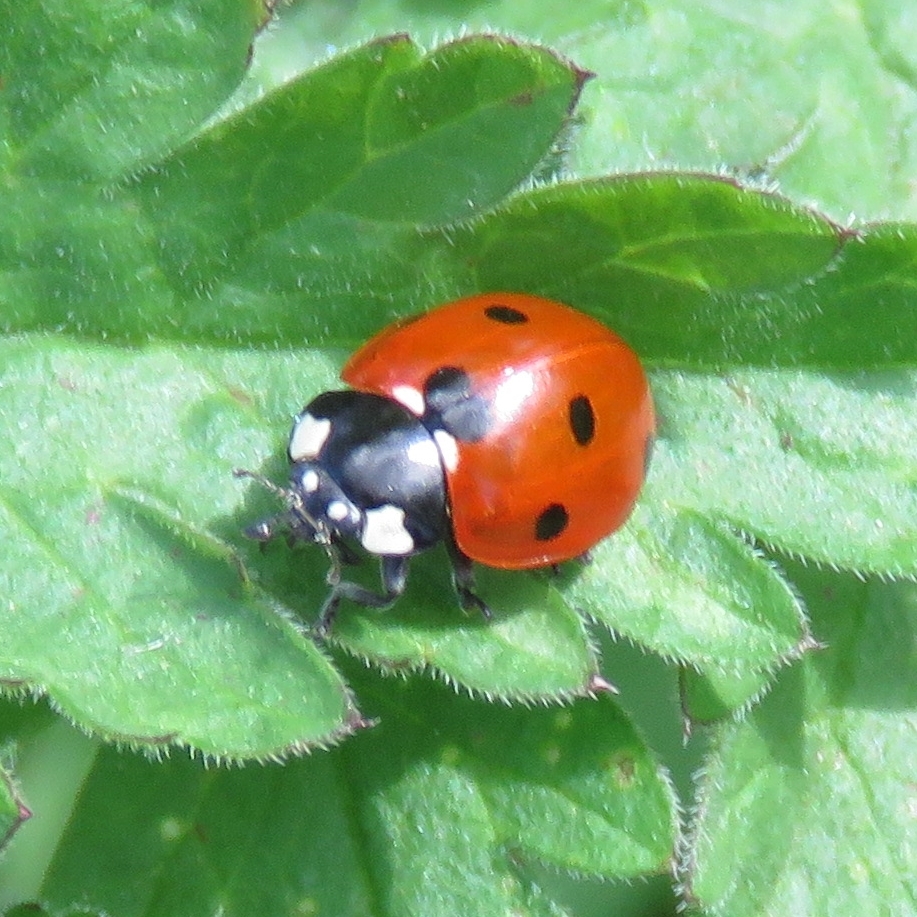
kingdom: Animalia
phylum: Arthropoda
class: Insecta
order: Coleoptera
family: Coccinellidae
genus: Coccinella
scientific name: Coccinella septempunctata
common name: Sevenspotted lady beetle
